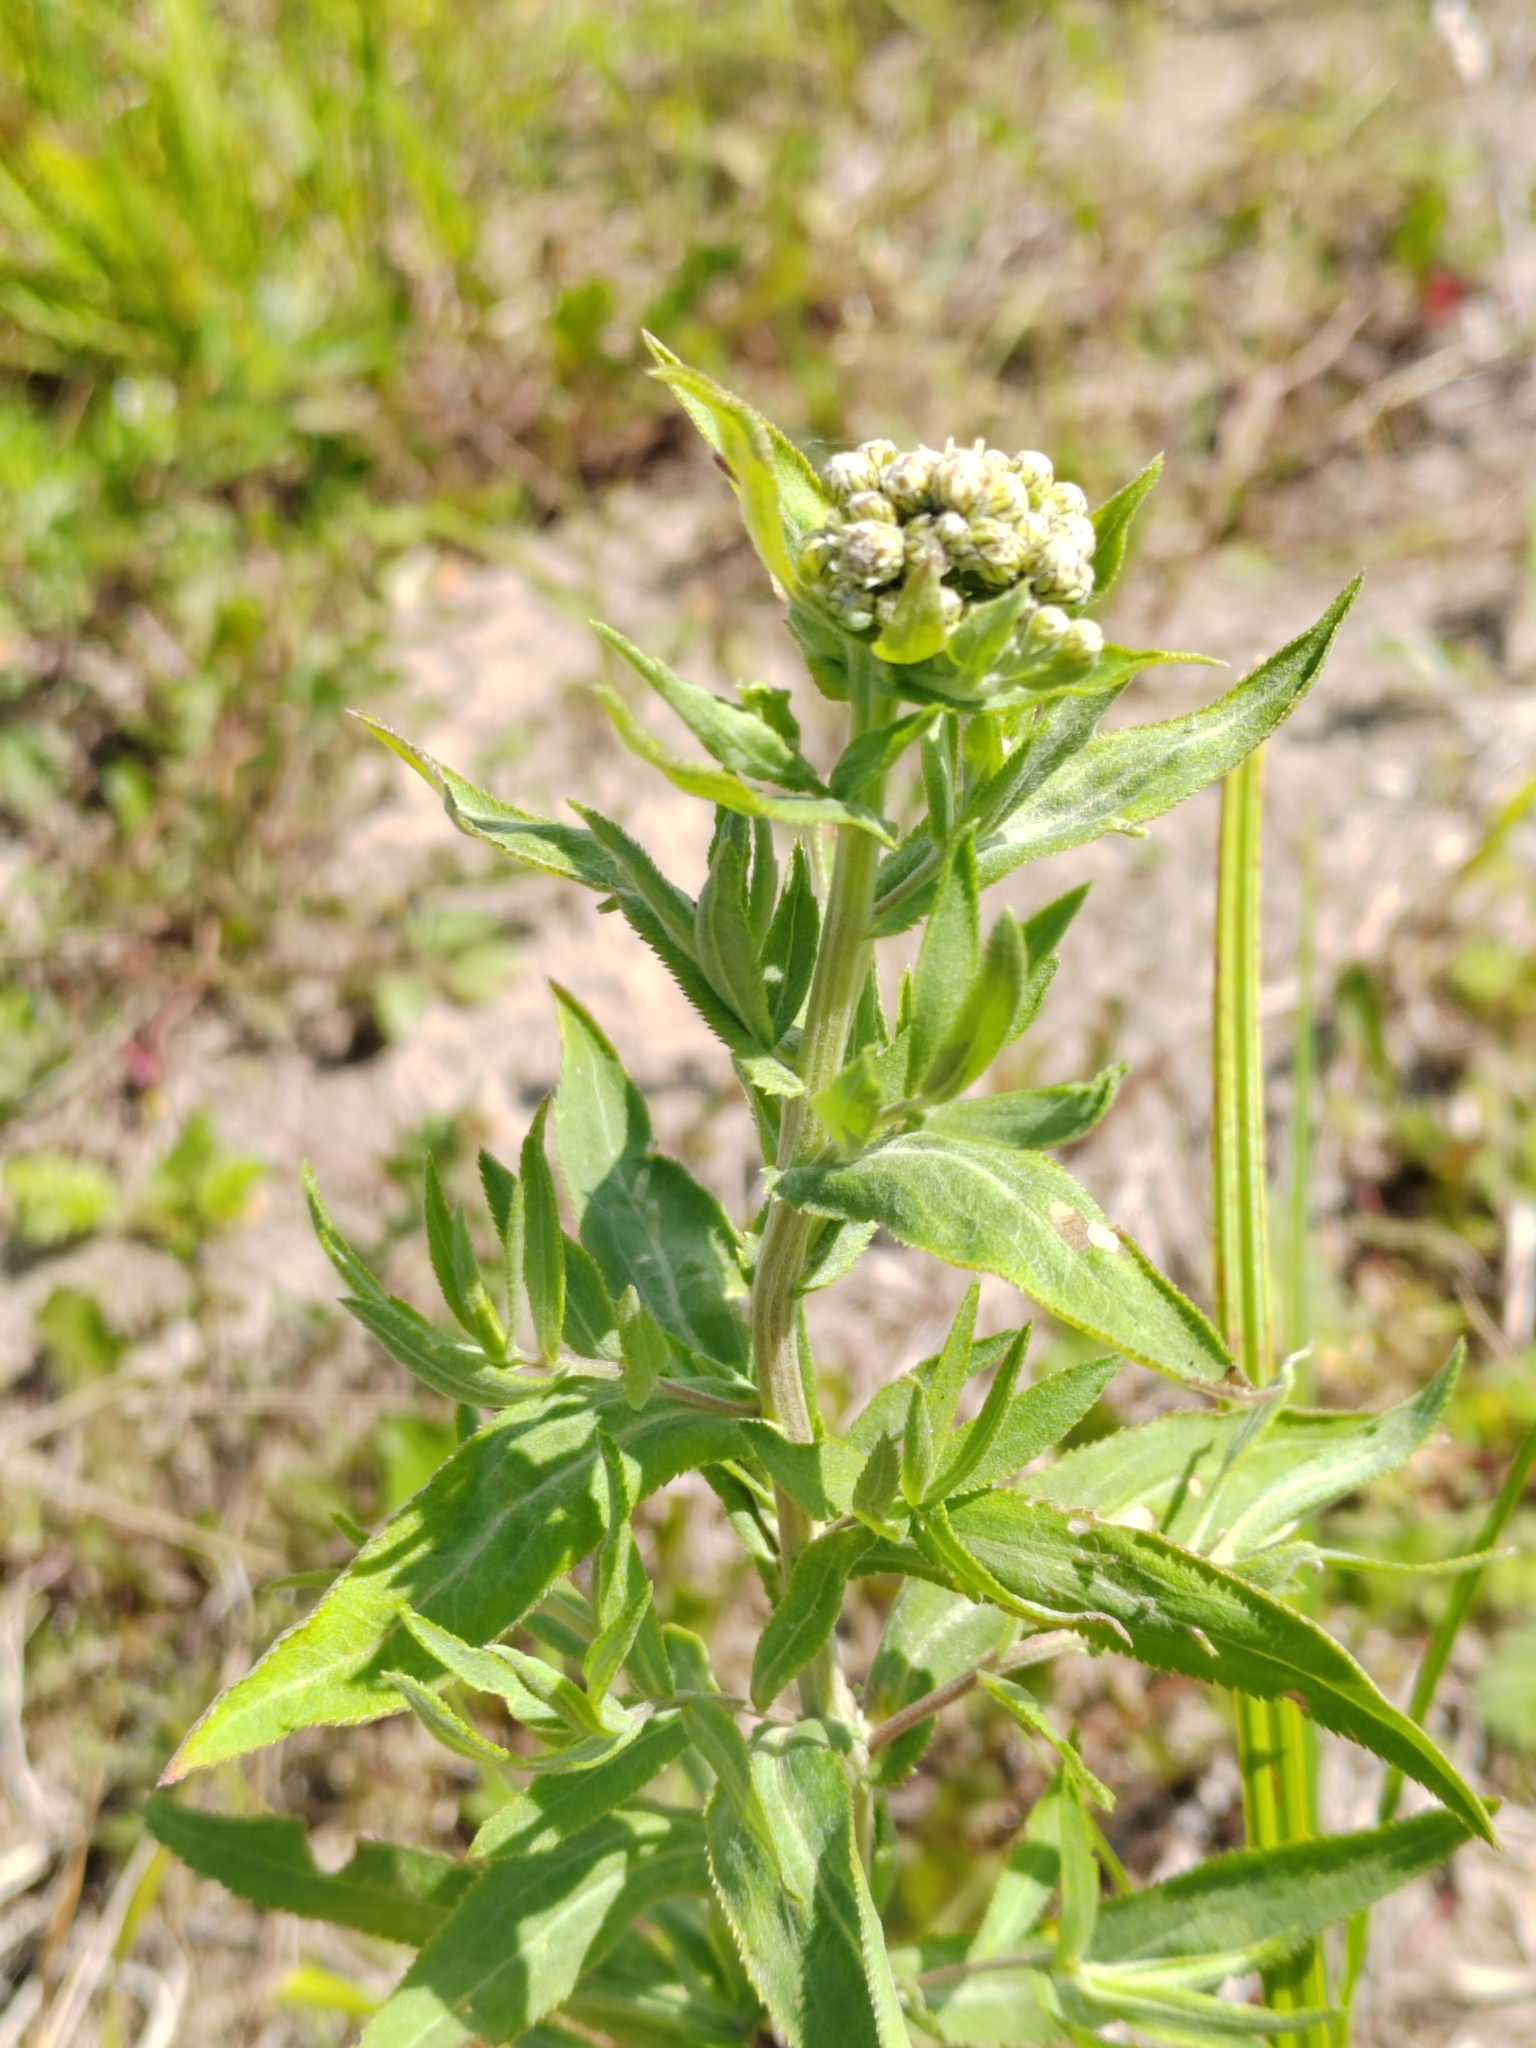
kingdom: Plantae
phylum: Tracheophyta
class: Magnoliopsida
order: Asterales
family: Asteraceae
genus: Achillea
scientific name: Achillea salicifolia
